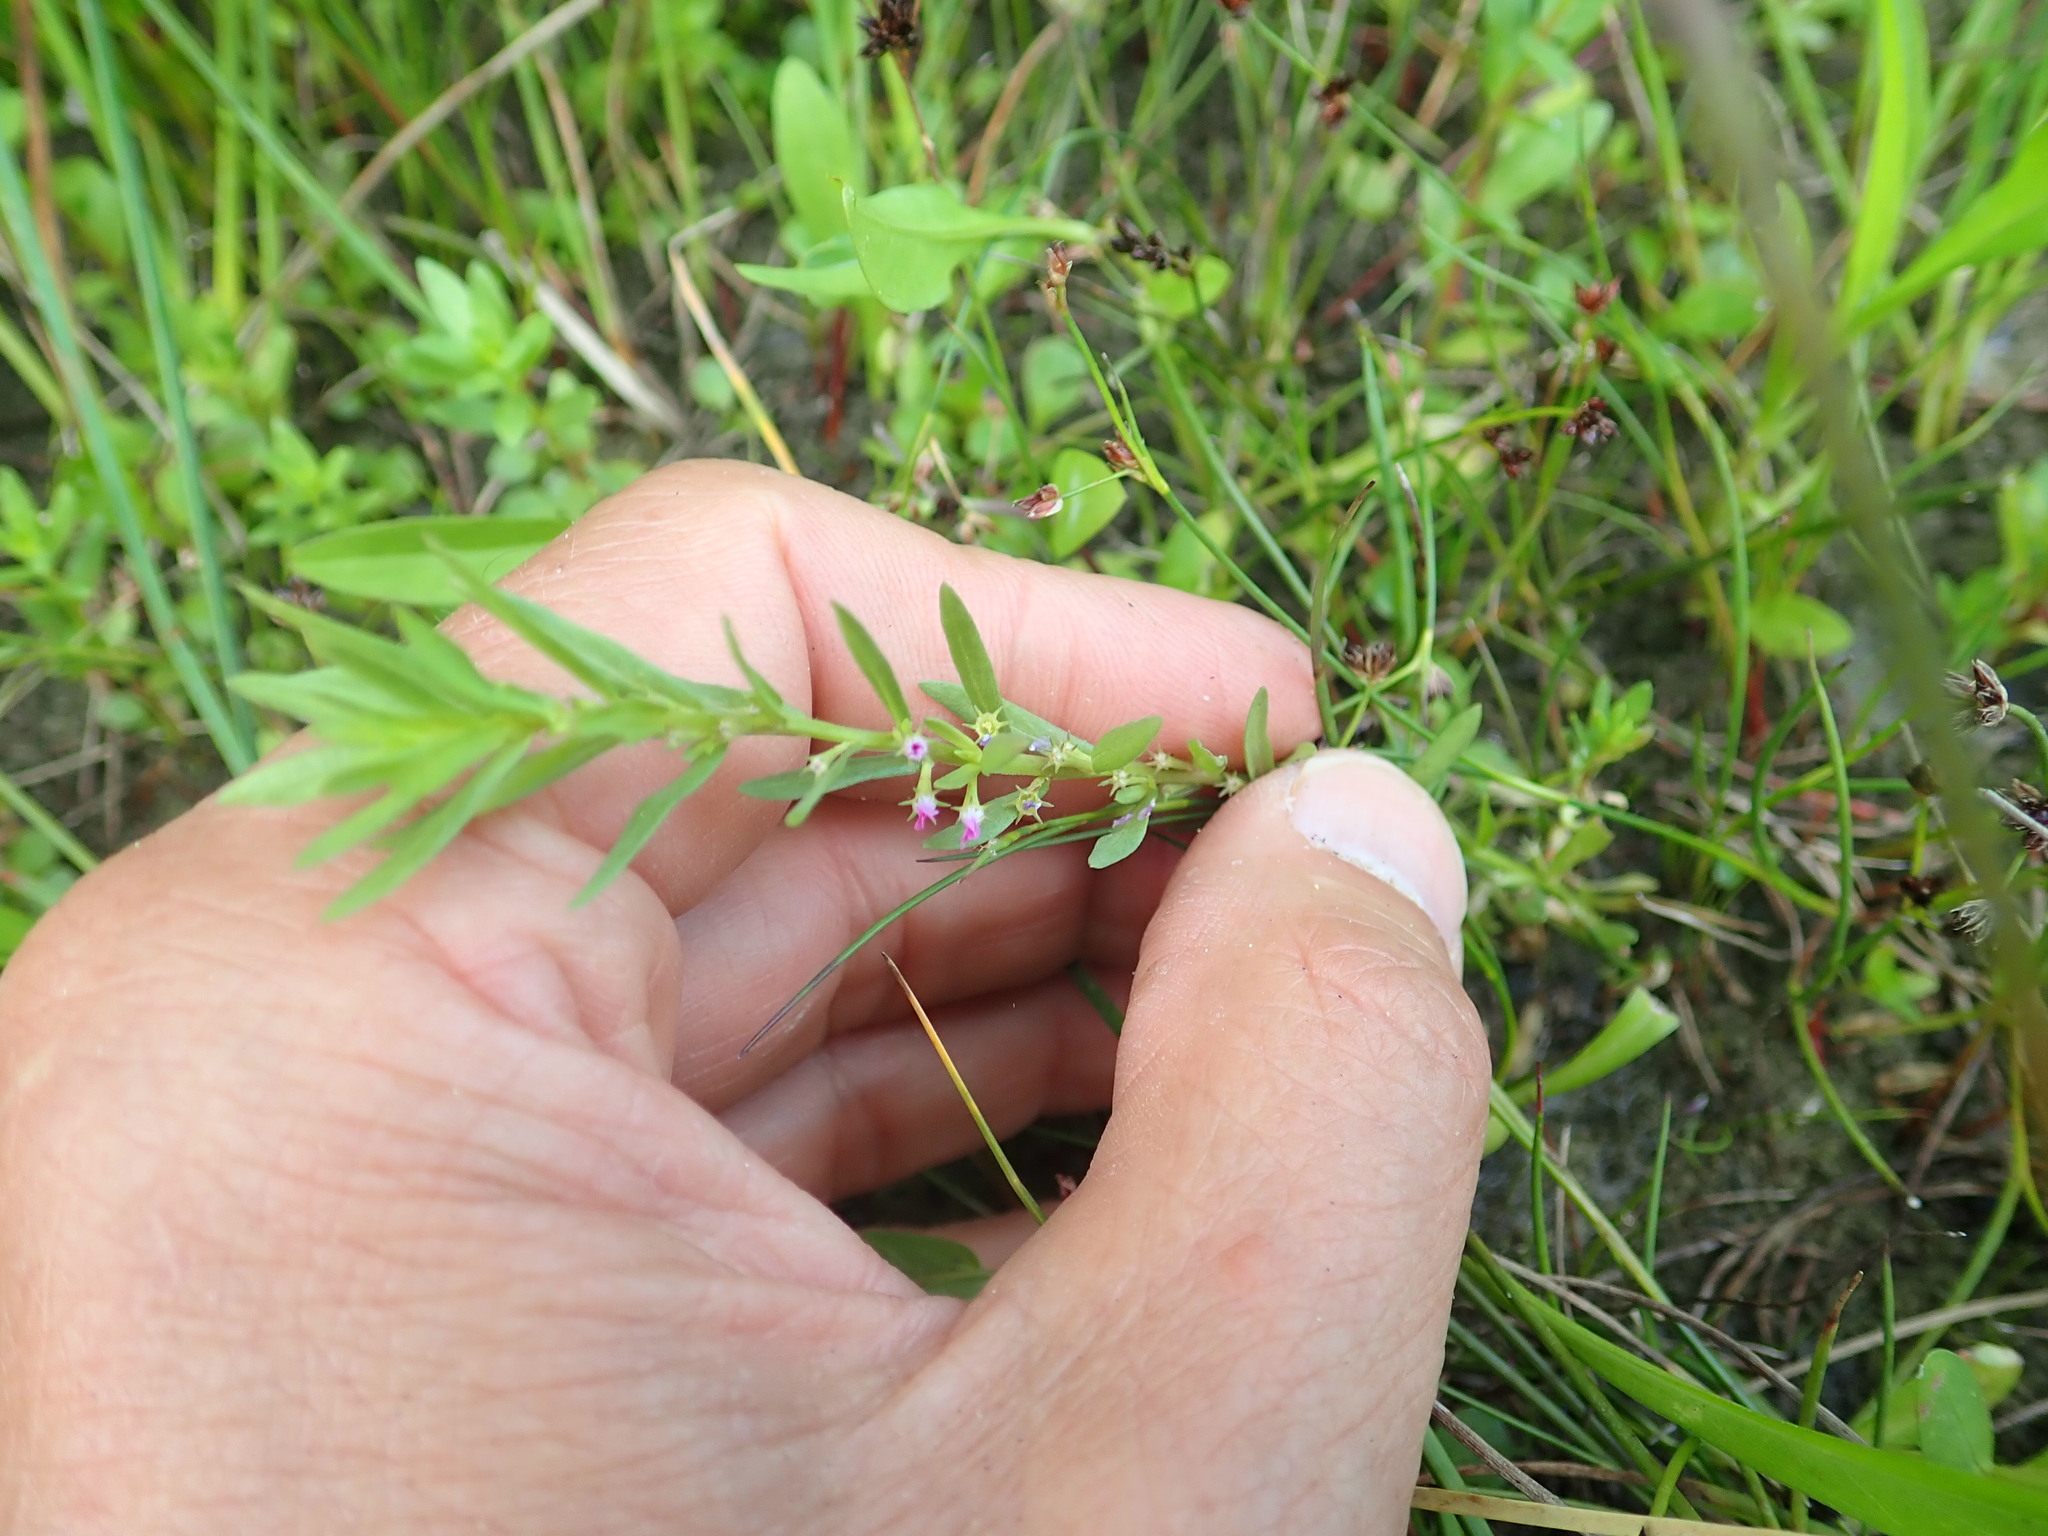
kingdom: Plantae
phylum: Tracheophyta
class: Magnoliopsida
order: Myrtales
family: Lythraceae
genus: Lythrum
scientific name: Lythrum hyssopifolia
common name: Grass-poly
